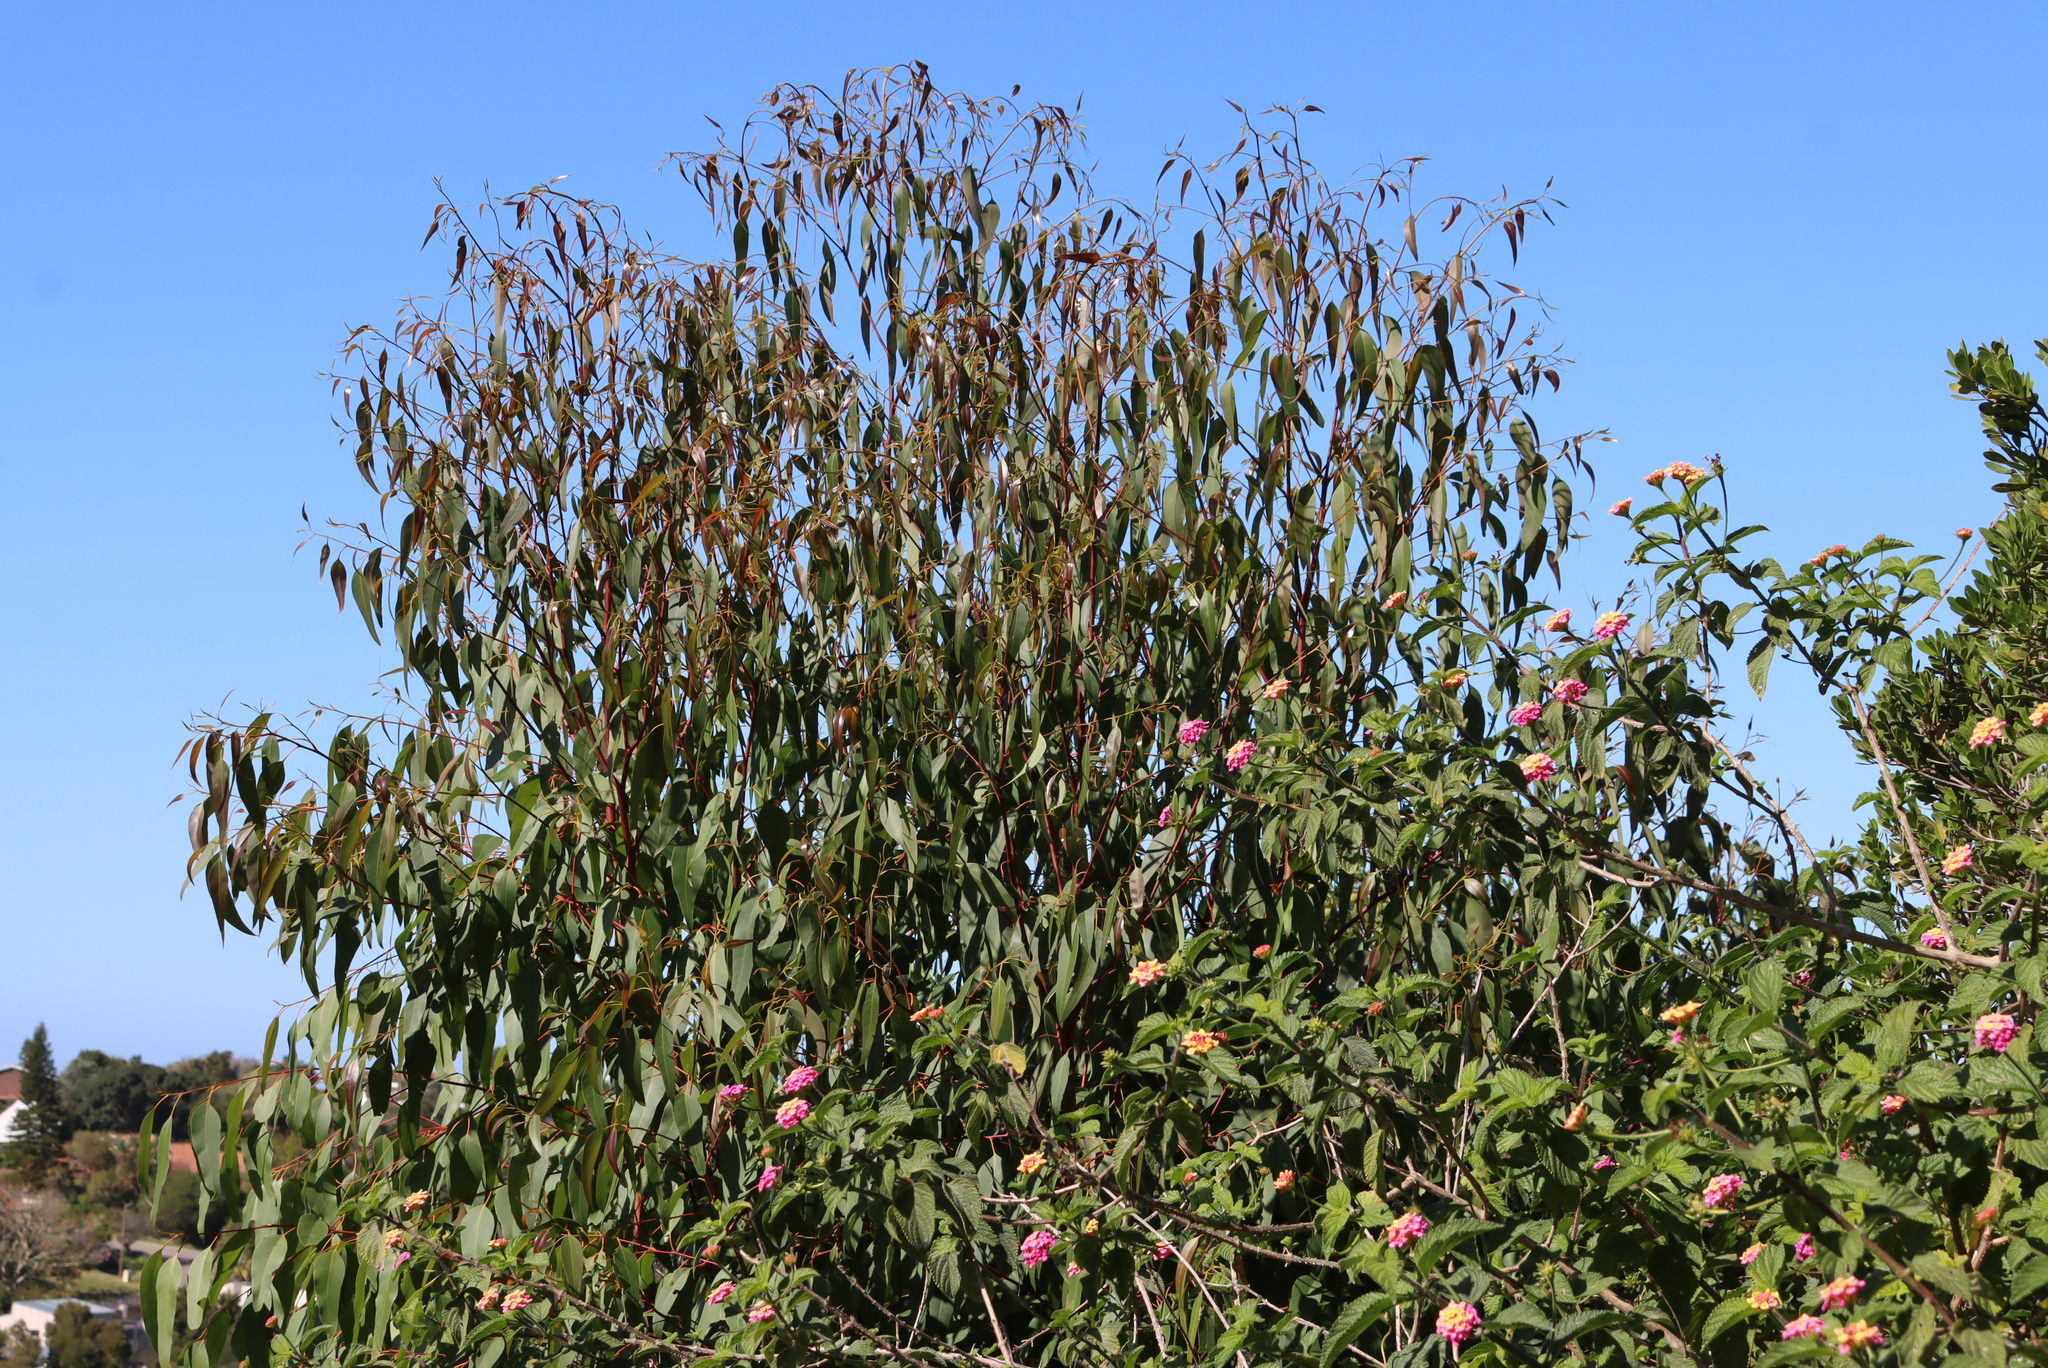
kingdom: Plantae
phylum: Tracheophyta
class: Magnoliopsida
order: Lamiales
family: Verbenaceae
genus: Lantana
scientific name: Lantana camara
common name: Lantana
